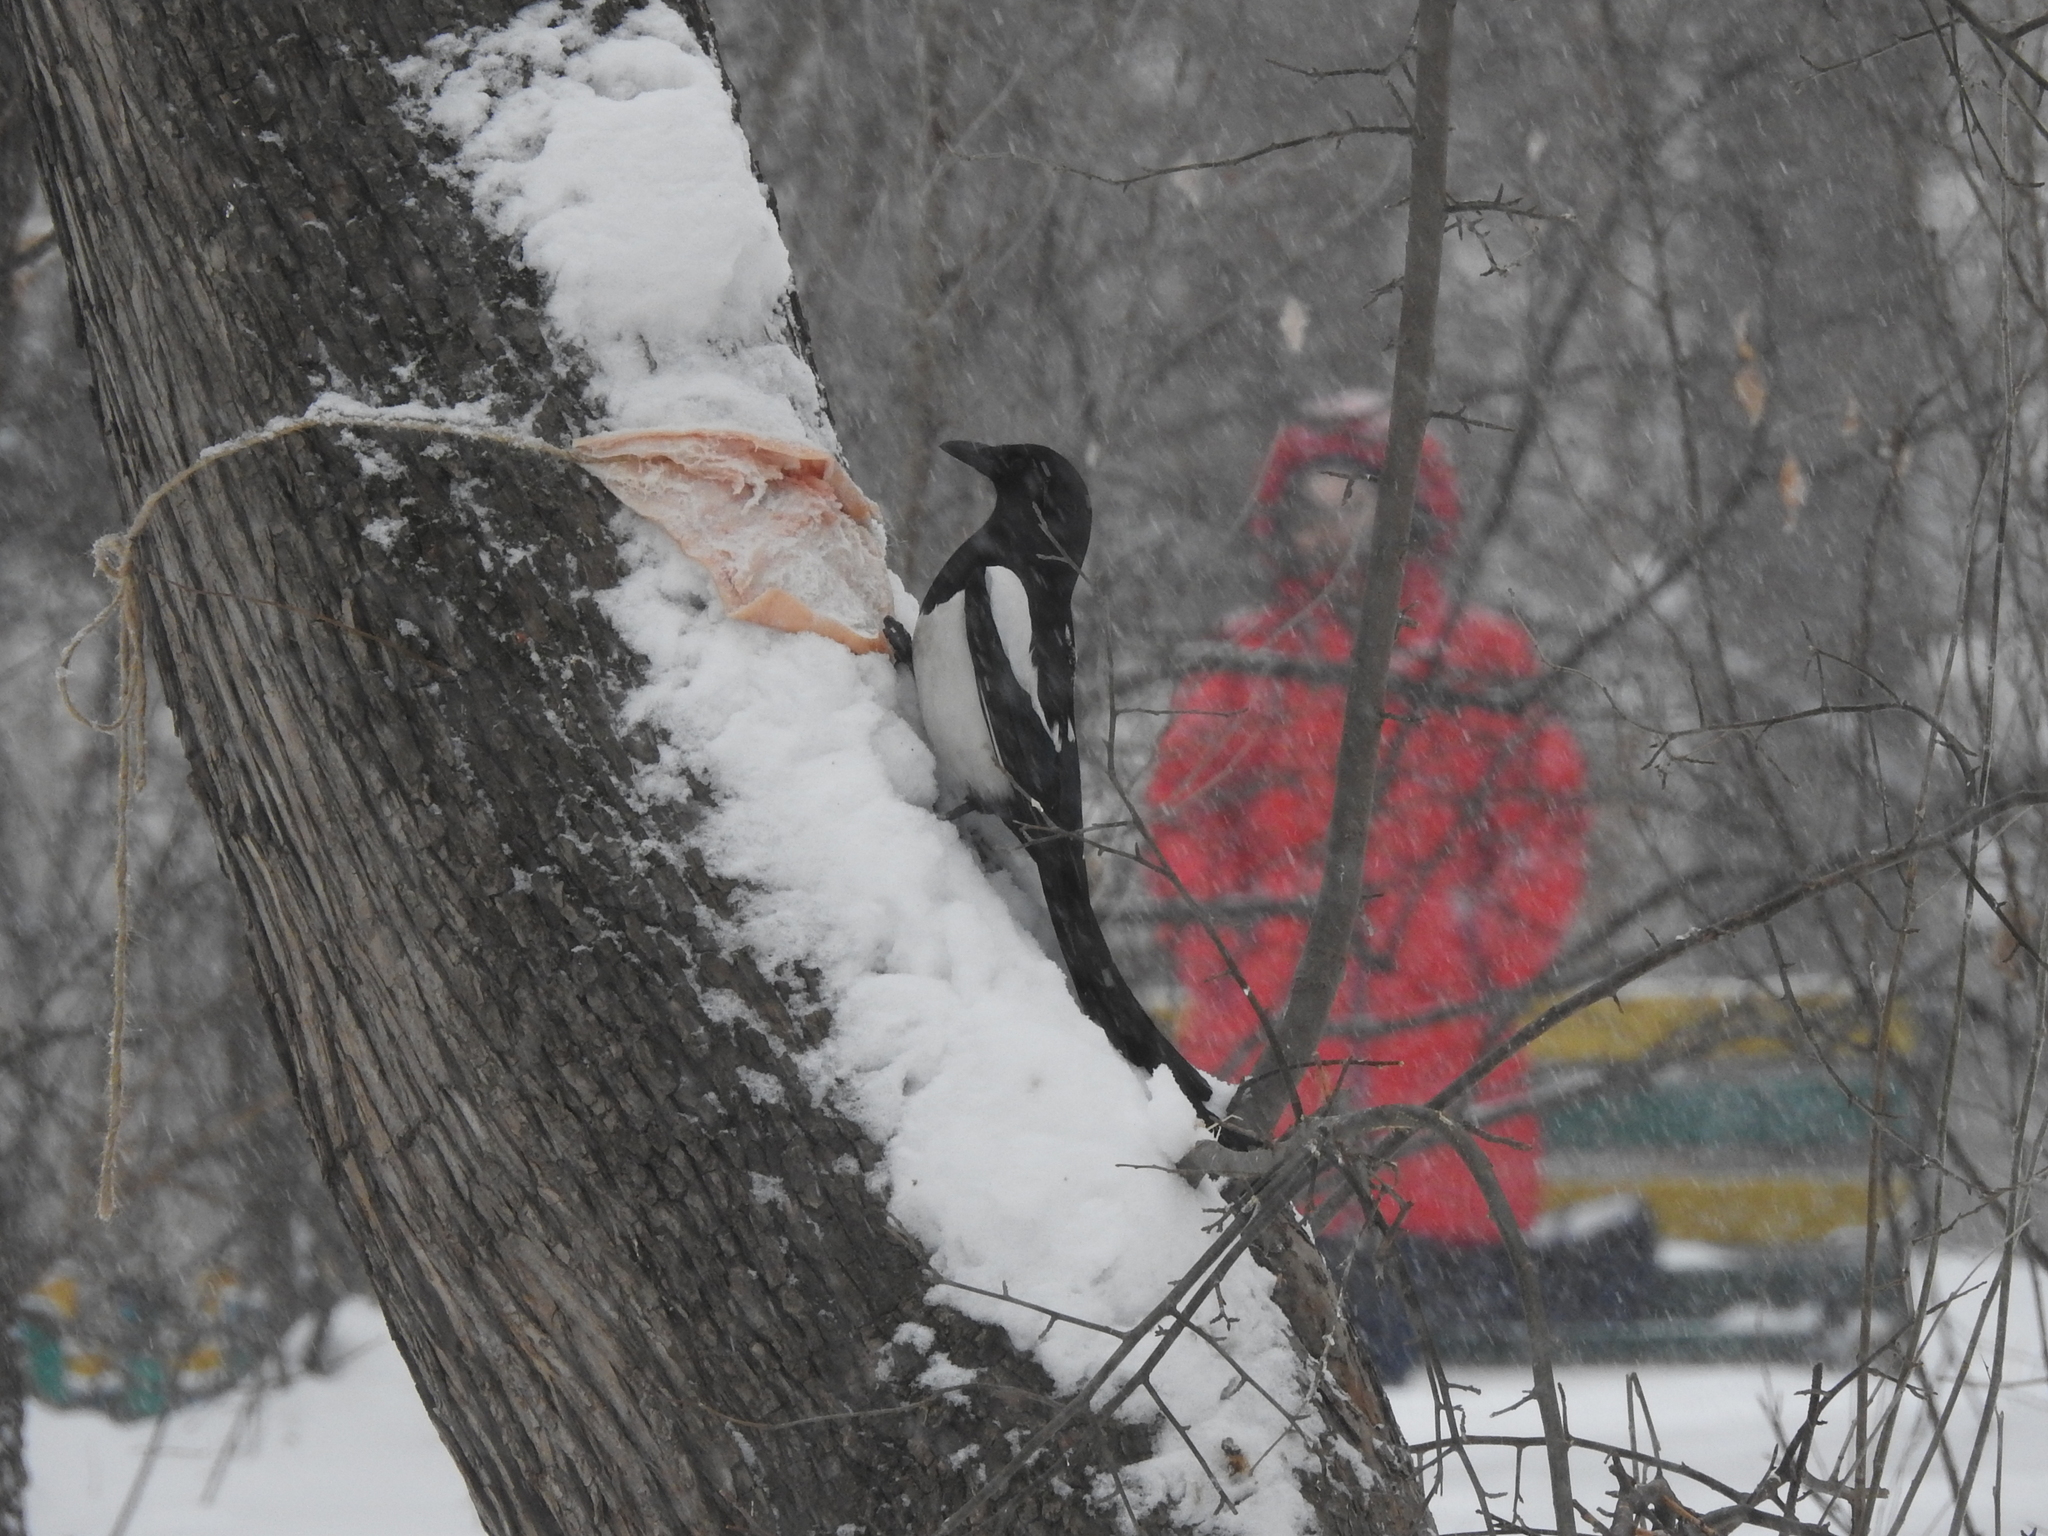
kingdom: Animalia
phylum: Chordata
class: Aves
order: Passeriformes
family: Corvidae
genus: Pica
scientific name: Pica pica
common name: Eurasian magpie
